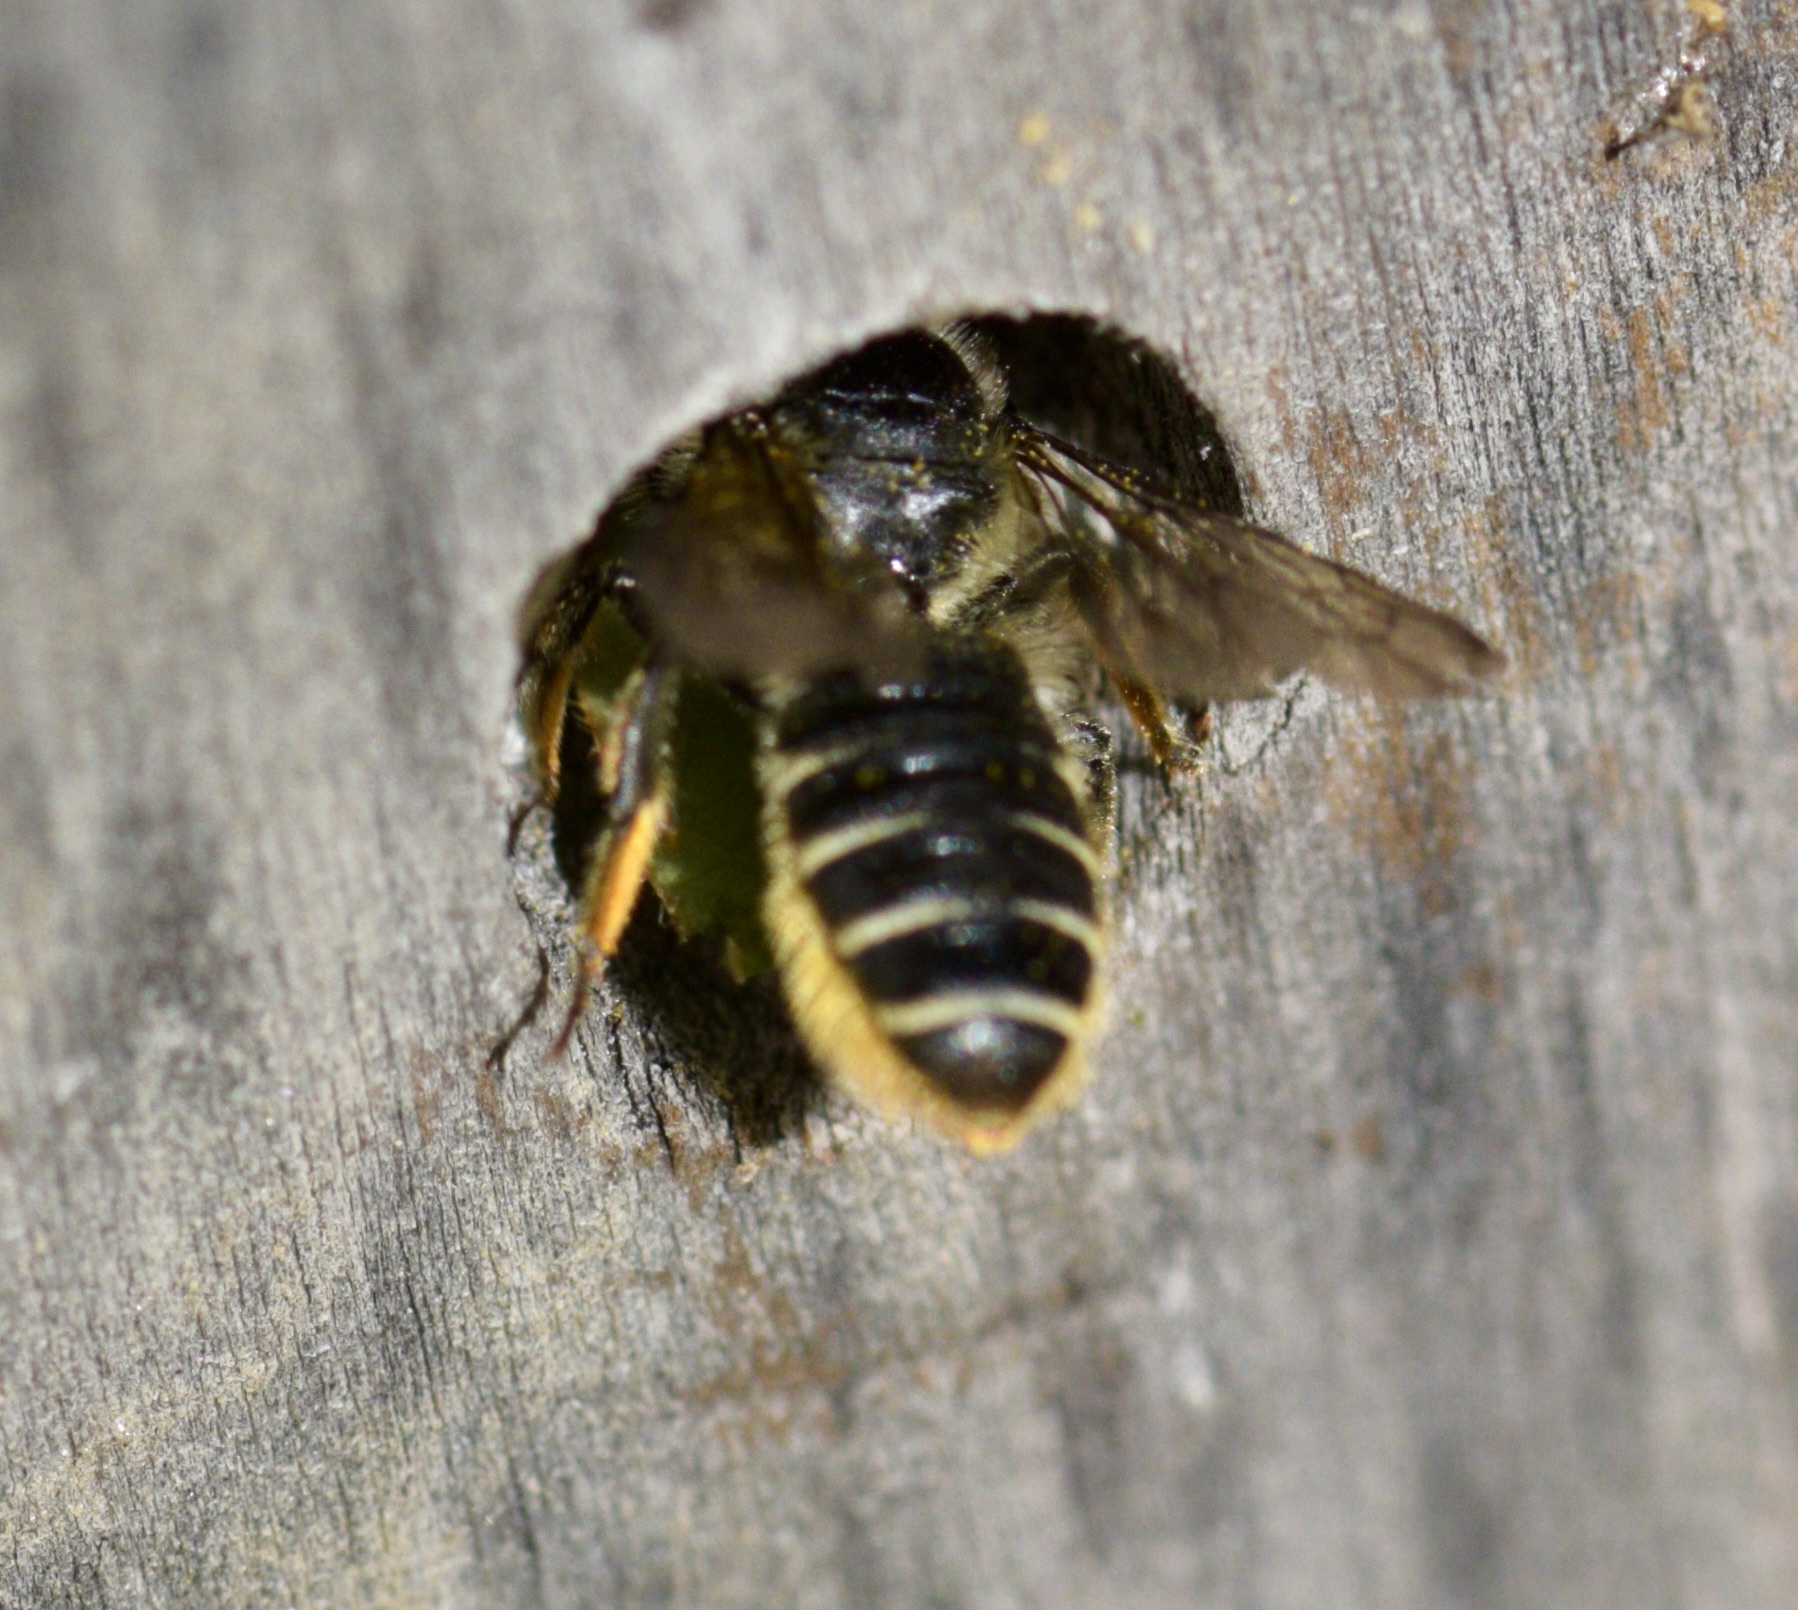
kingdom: Animalia
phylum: Arthropoda
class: Insecta
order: Hymenoptera
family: Megachilidae
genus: Megachile
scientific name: Megachile relativa
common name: Golden-tailed leafcutter
